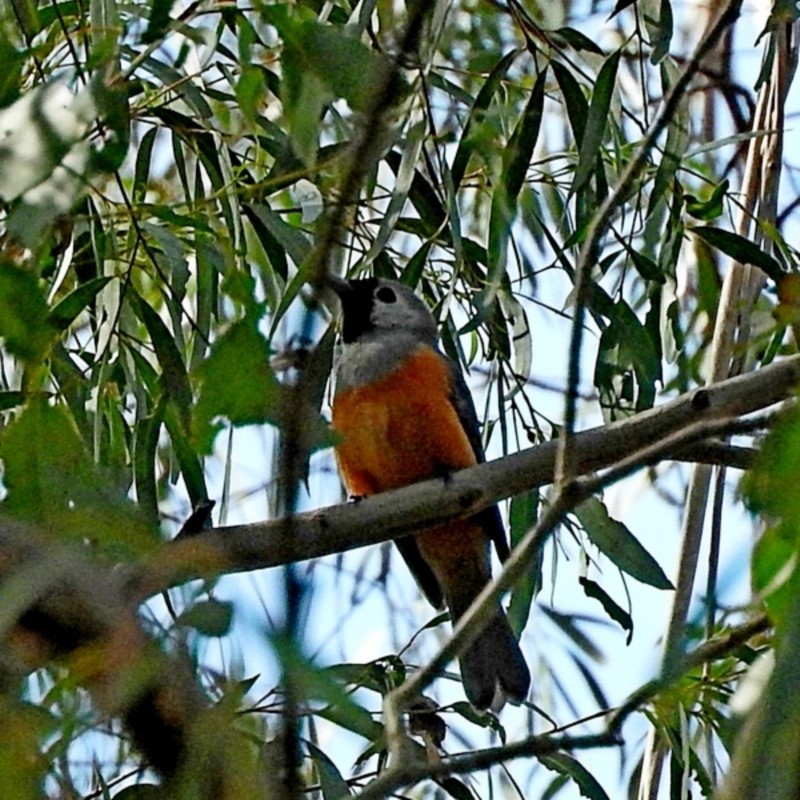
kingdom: Animalia
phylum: Chordata
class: Aves
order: Passeriformes
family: Monarchidae
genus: Monarcha
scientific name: Monarcha melanopsis
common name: Black-faced monarch
